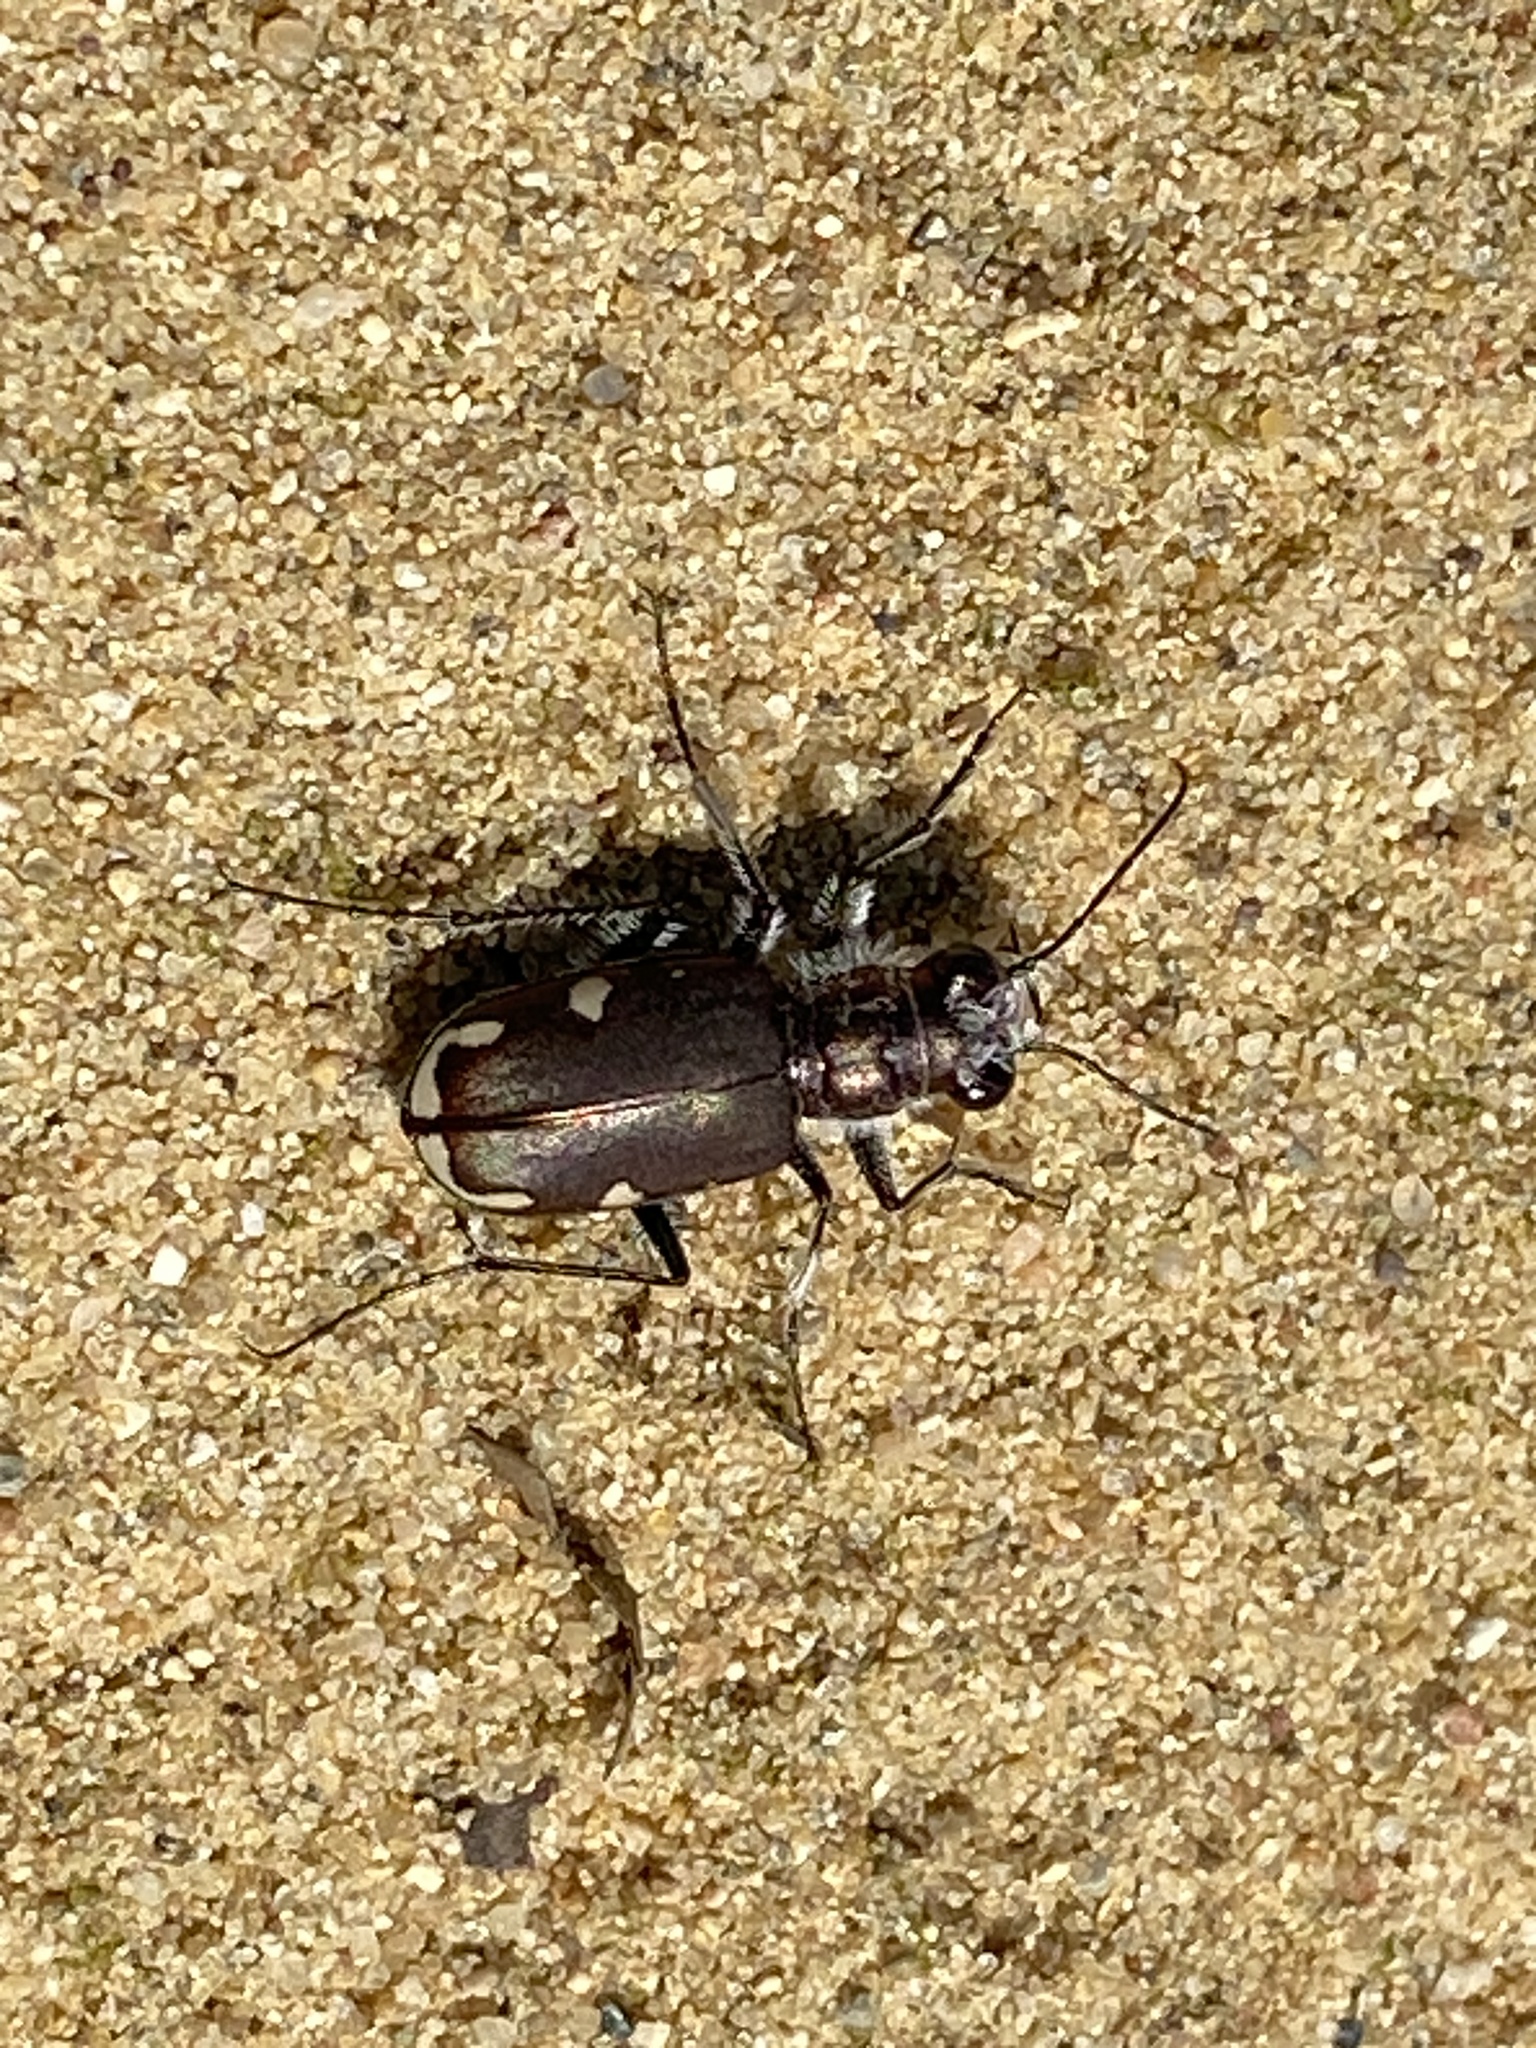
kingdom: Animalia
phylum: Arthropoda
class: Insecta
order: Coleoptera
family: Carabidae
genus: Cicindela
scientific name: Cicindela scutellaris
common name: Festive tiger beetle
